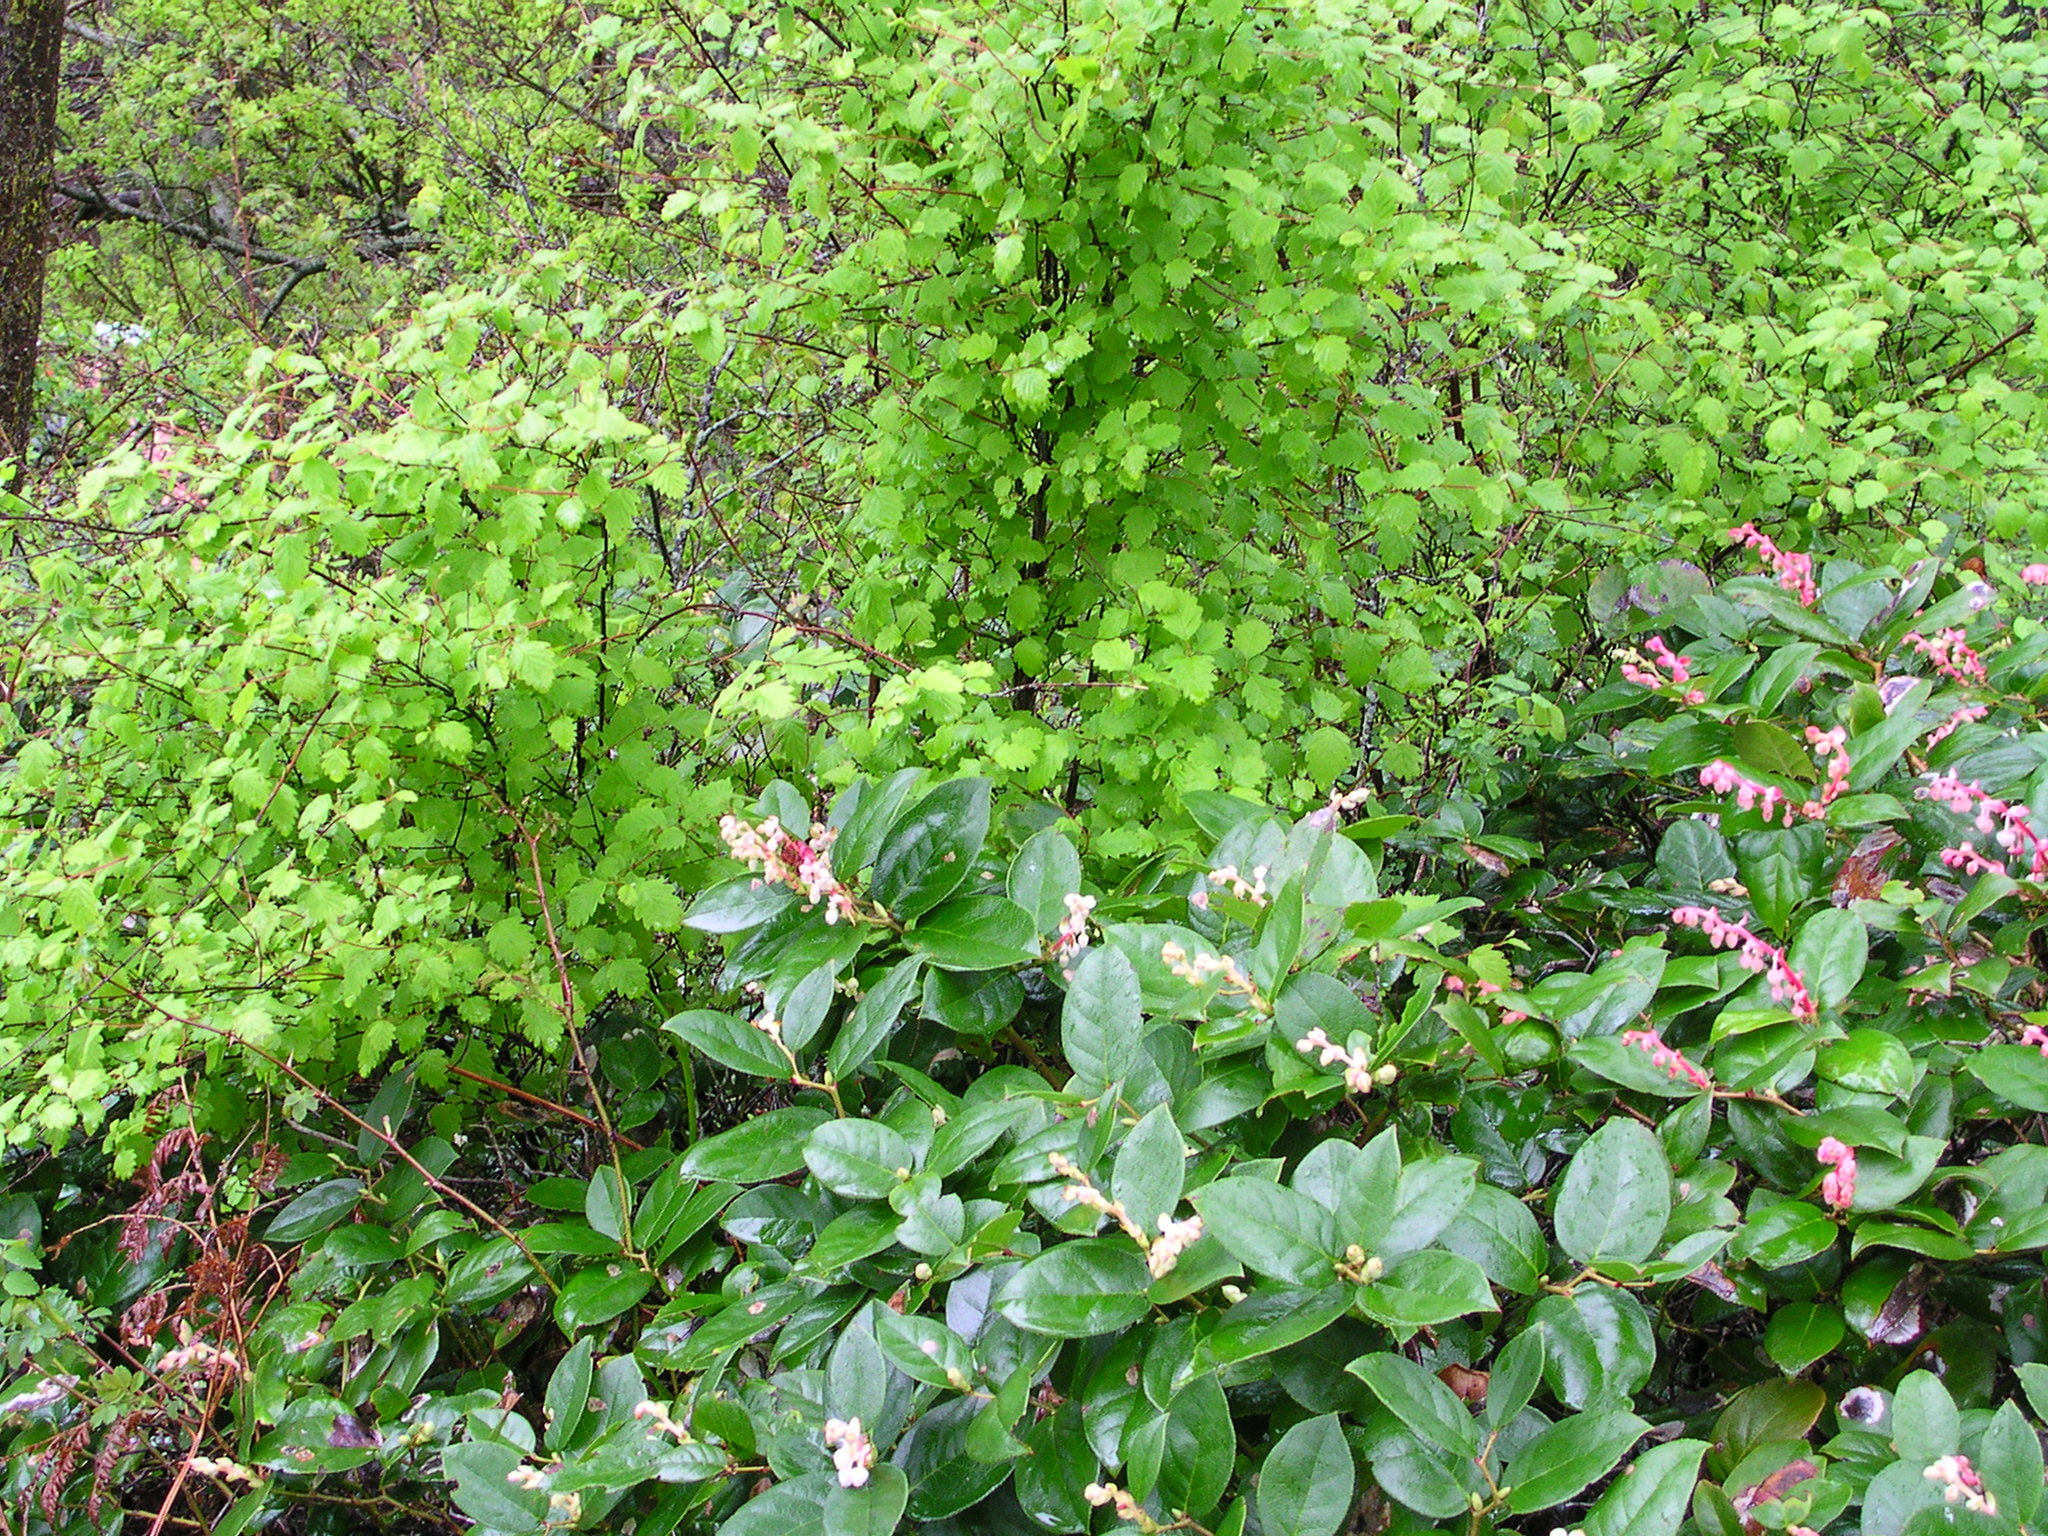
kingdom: Plantae
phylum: Tracheophyta
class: Magnoliopsida
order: Ericales
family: Ericaceae
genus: Gaultheria
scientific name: Gaultheria shallon
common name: Shallon
